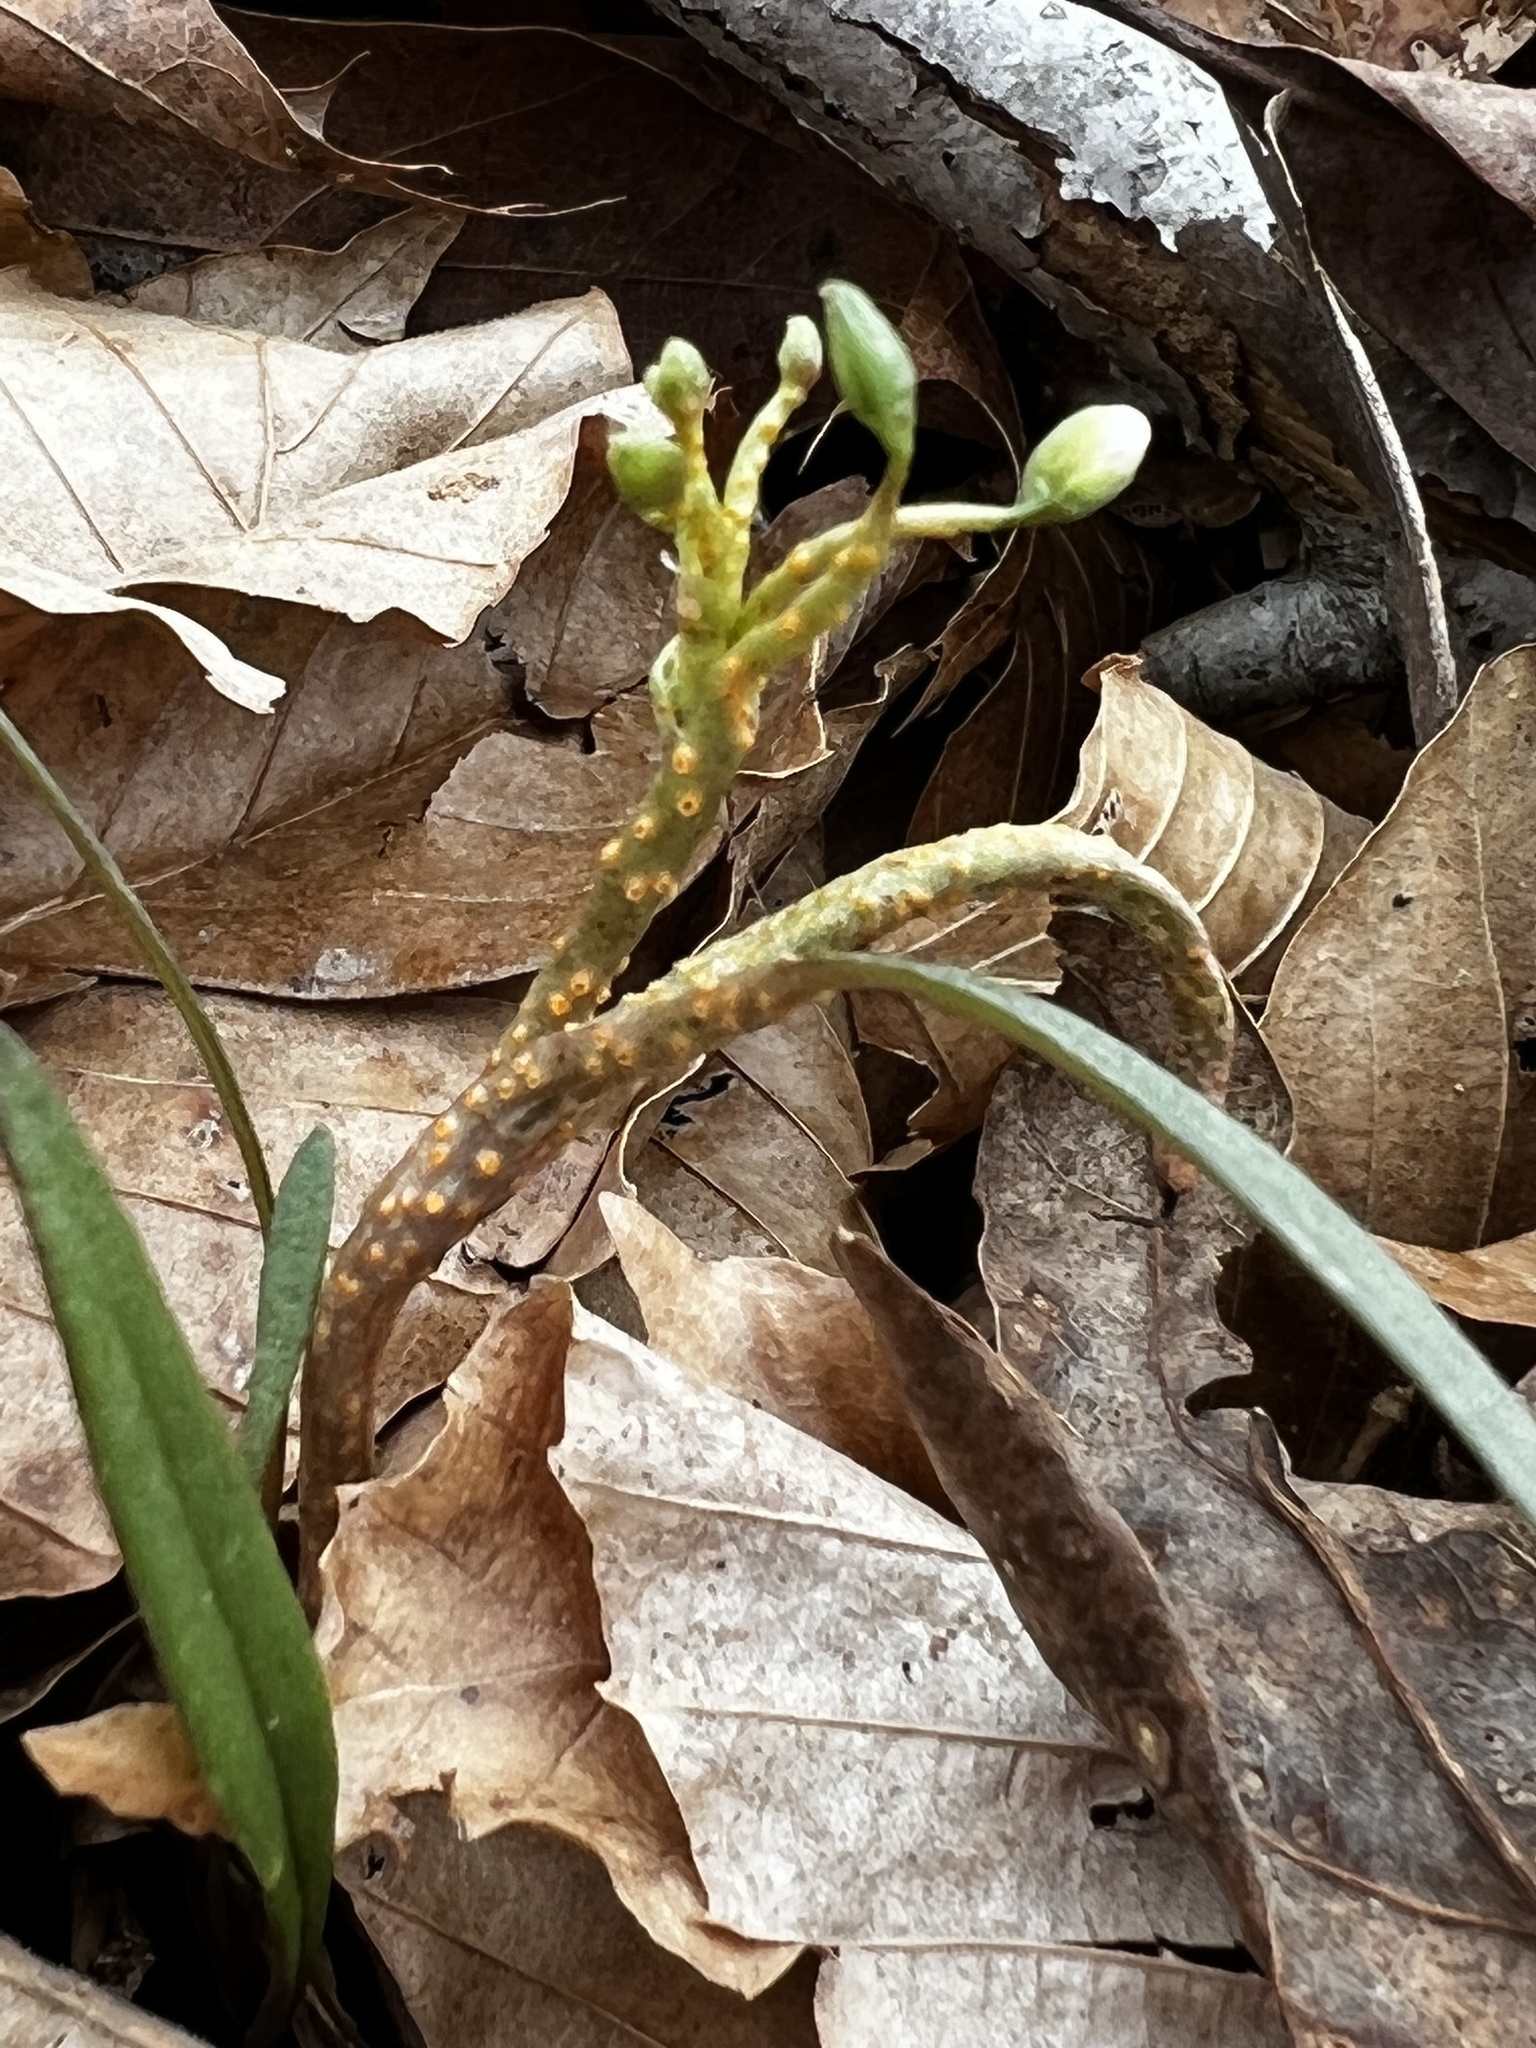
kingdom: Fungi
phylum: Basidiomycota
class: Pucciniomycetes
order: Pucciniales
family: Pucciniaceae
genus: Puccinia
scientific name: Puccinia mariae-wilsoniae
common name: Spring beauty rust
